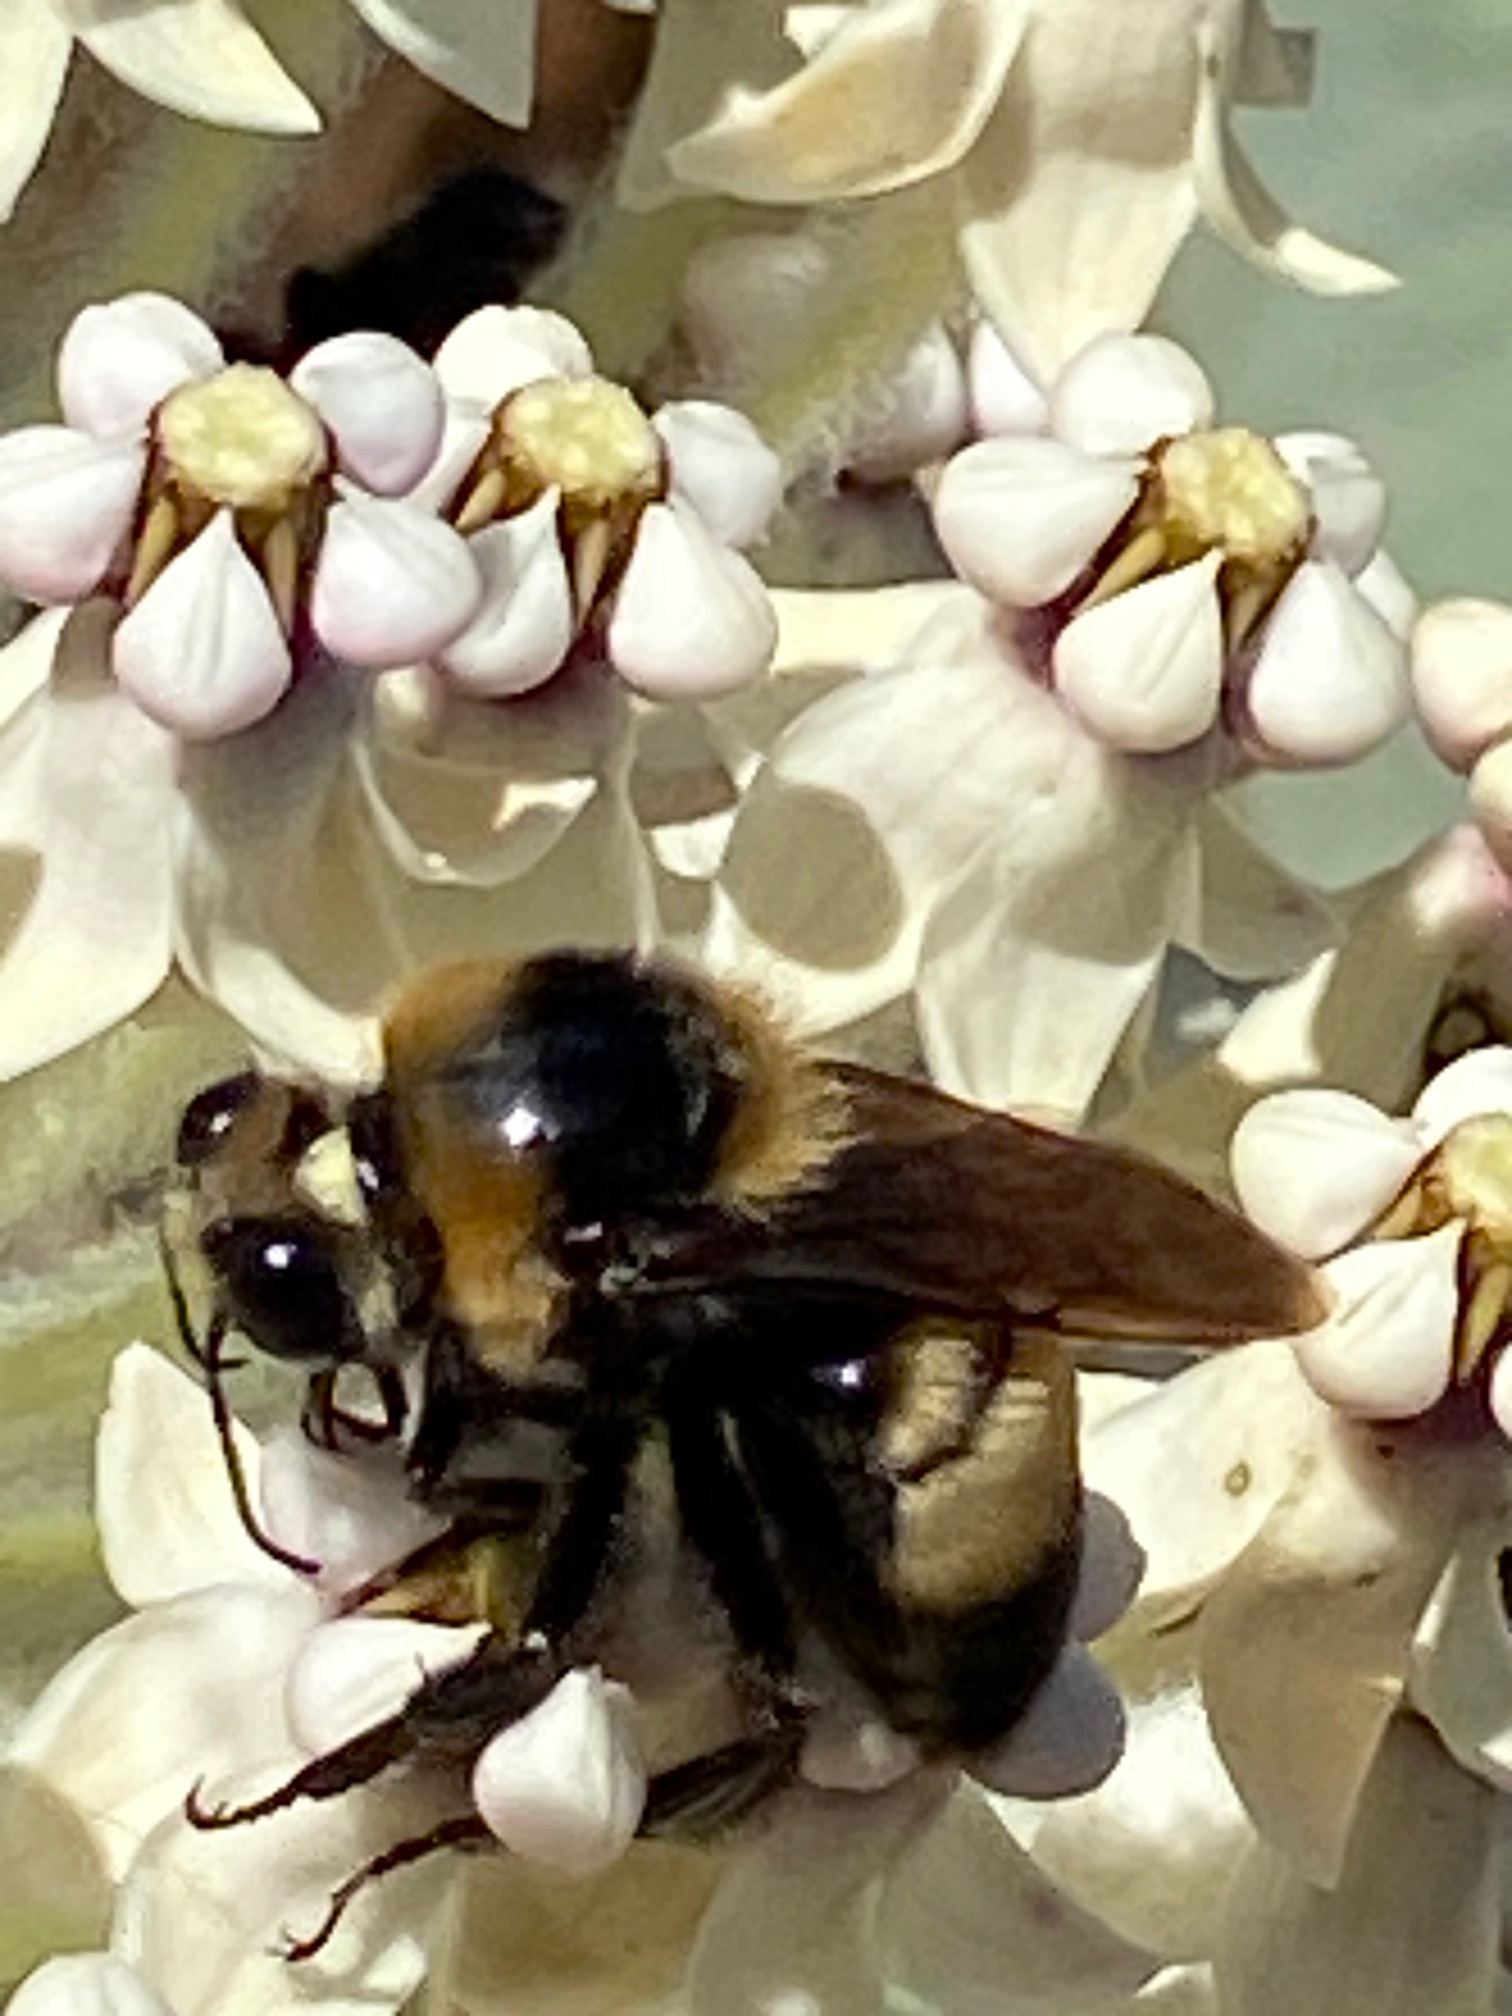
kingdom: Animalia
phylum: Arthropoda
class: Insecta
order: Hymenoptera
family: Apidae
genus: Bombus
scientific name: Bombus crotchii
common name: Crotch bumble bee
